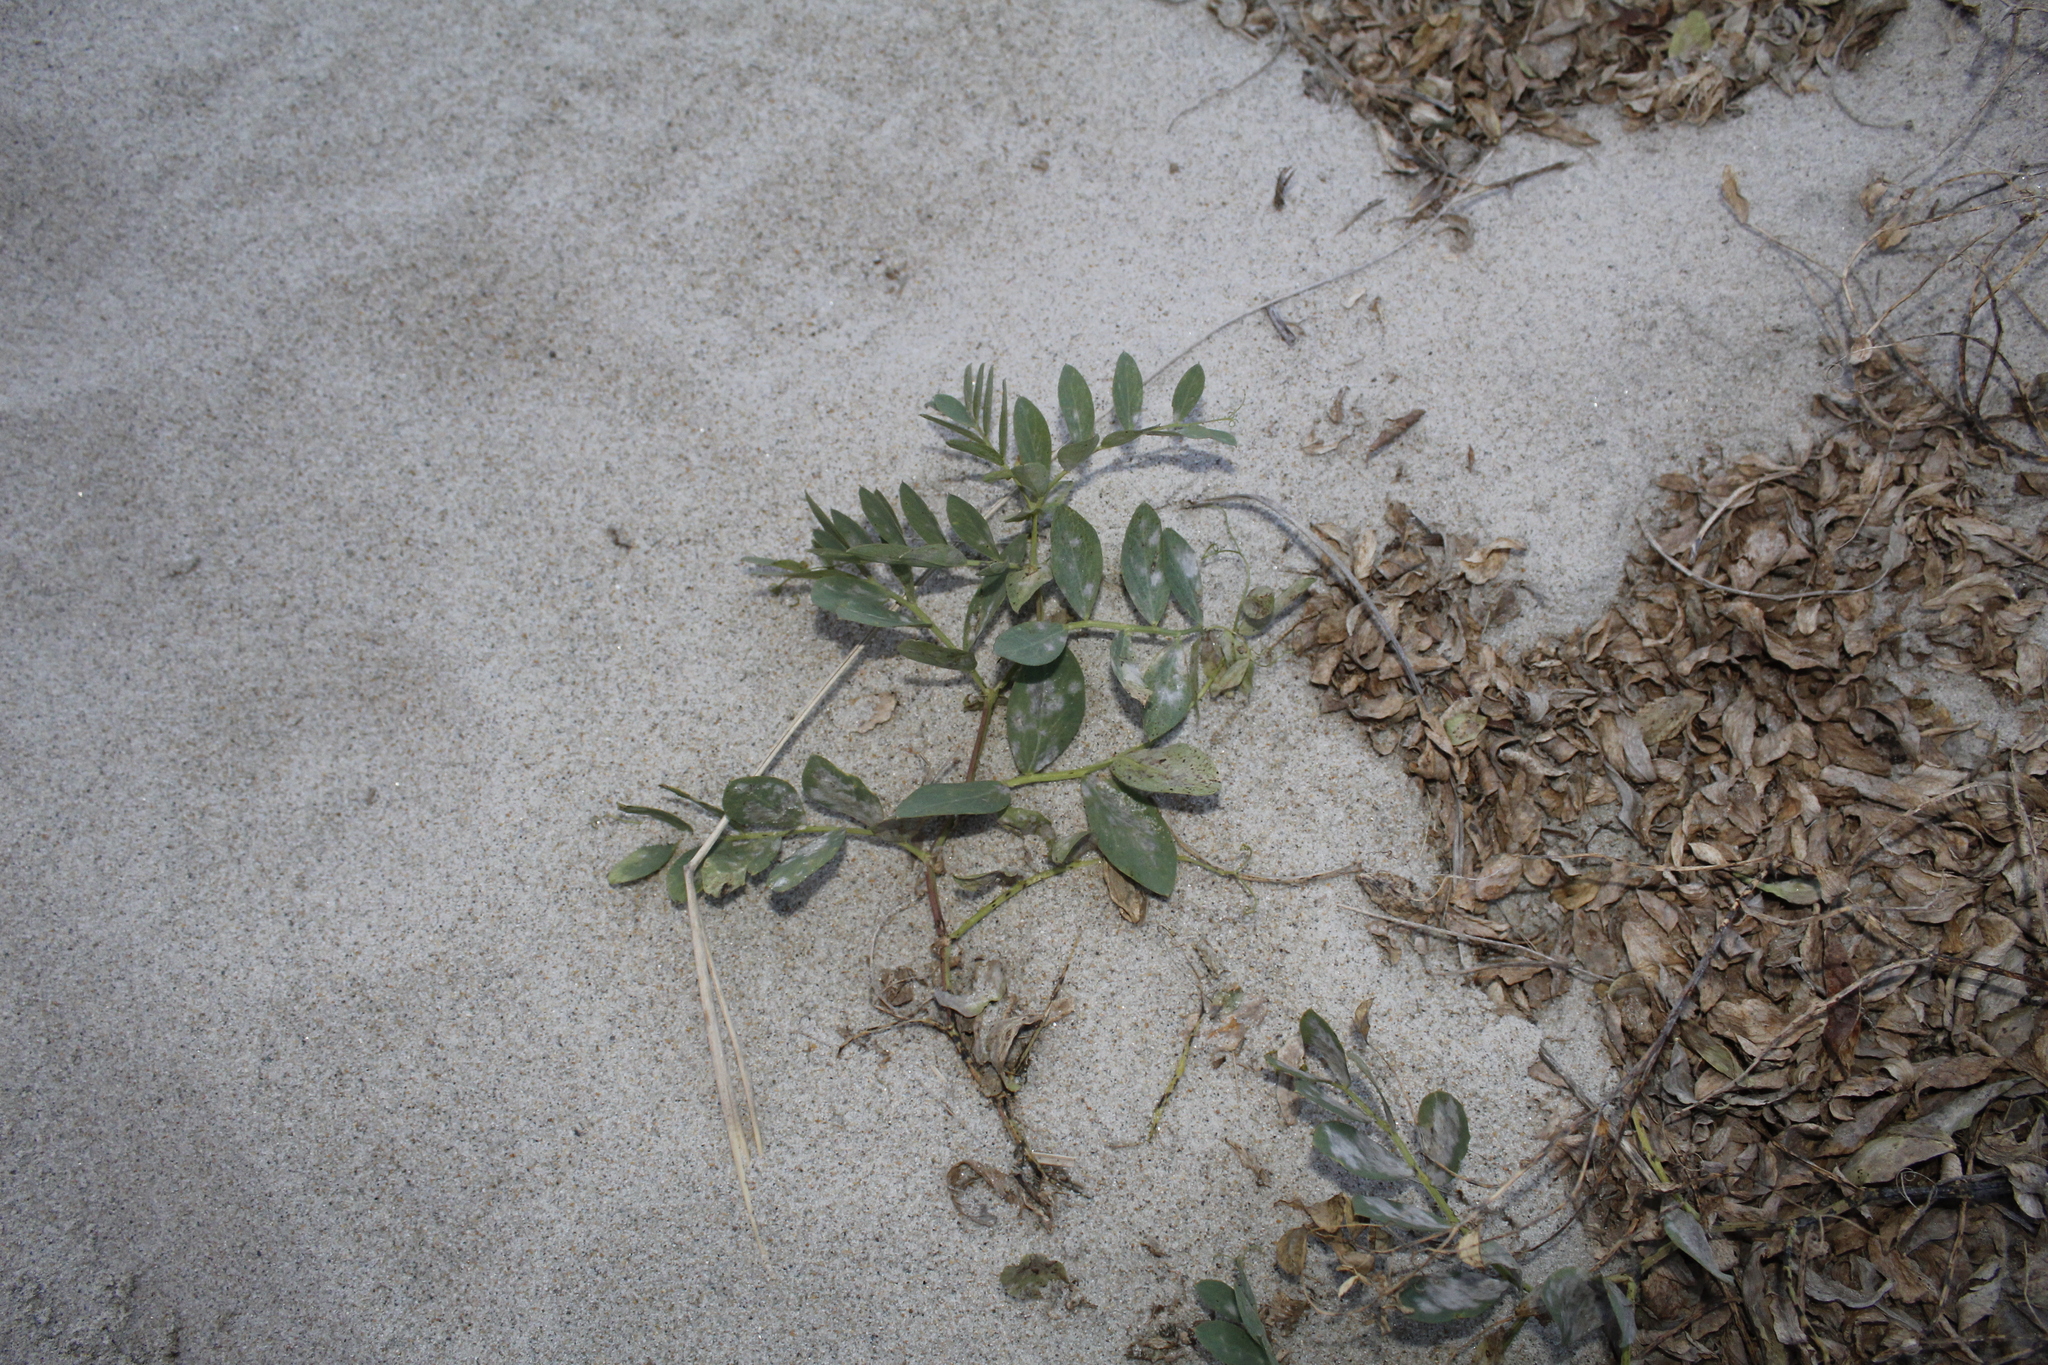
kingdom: Plantae
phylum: Tracheophyta
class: Magnoliopsida
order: Fabales
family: Fabaceae
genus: Lathyrus
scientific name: Lathyrus japonicus
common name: Sea pea
